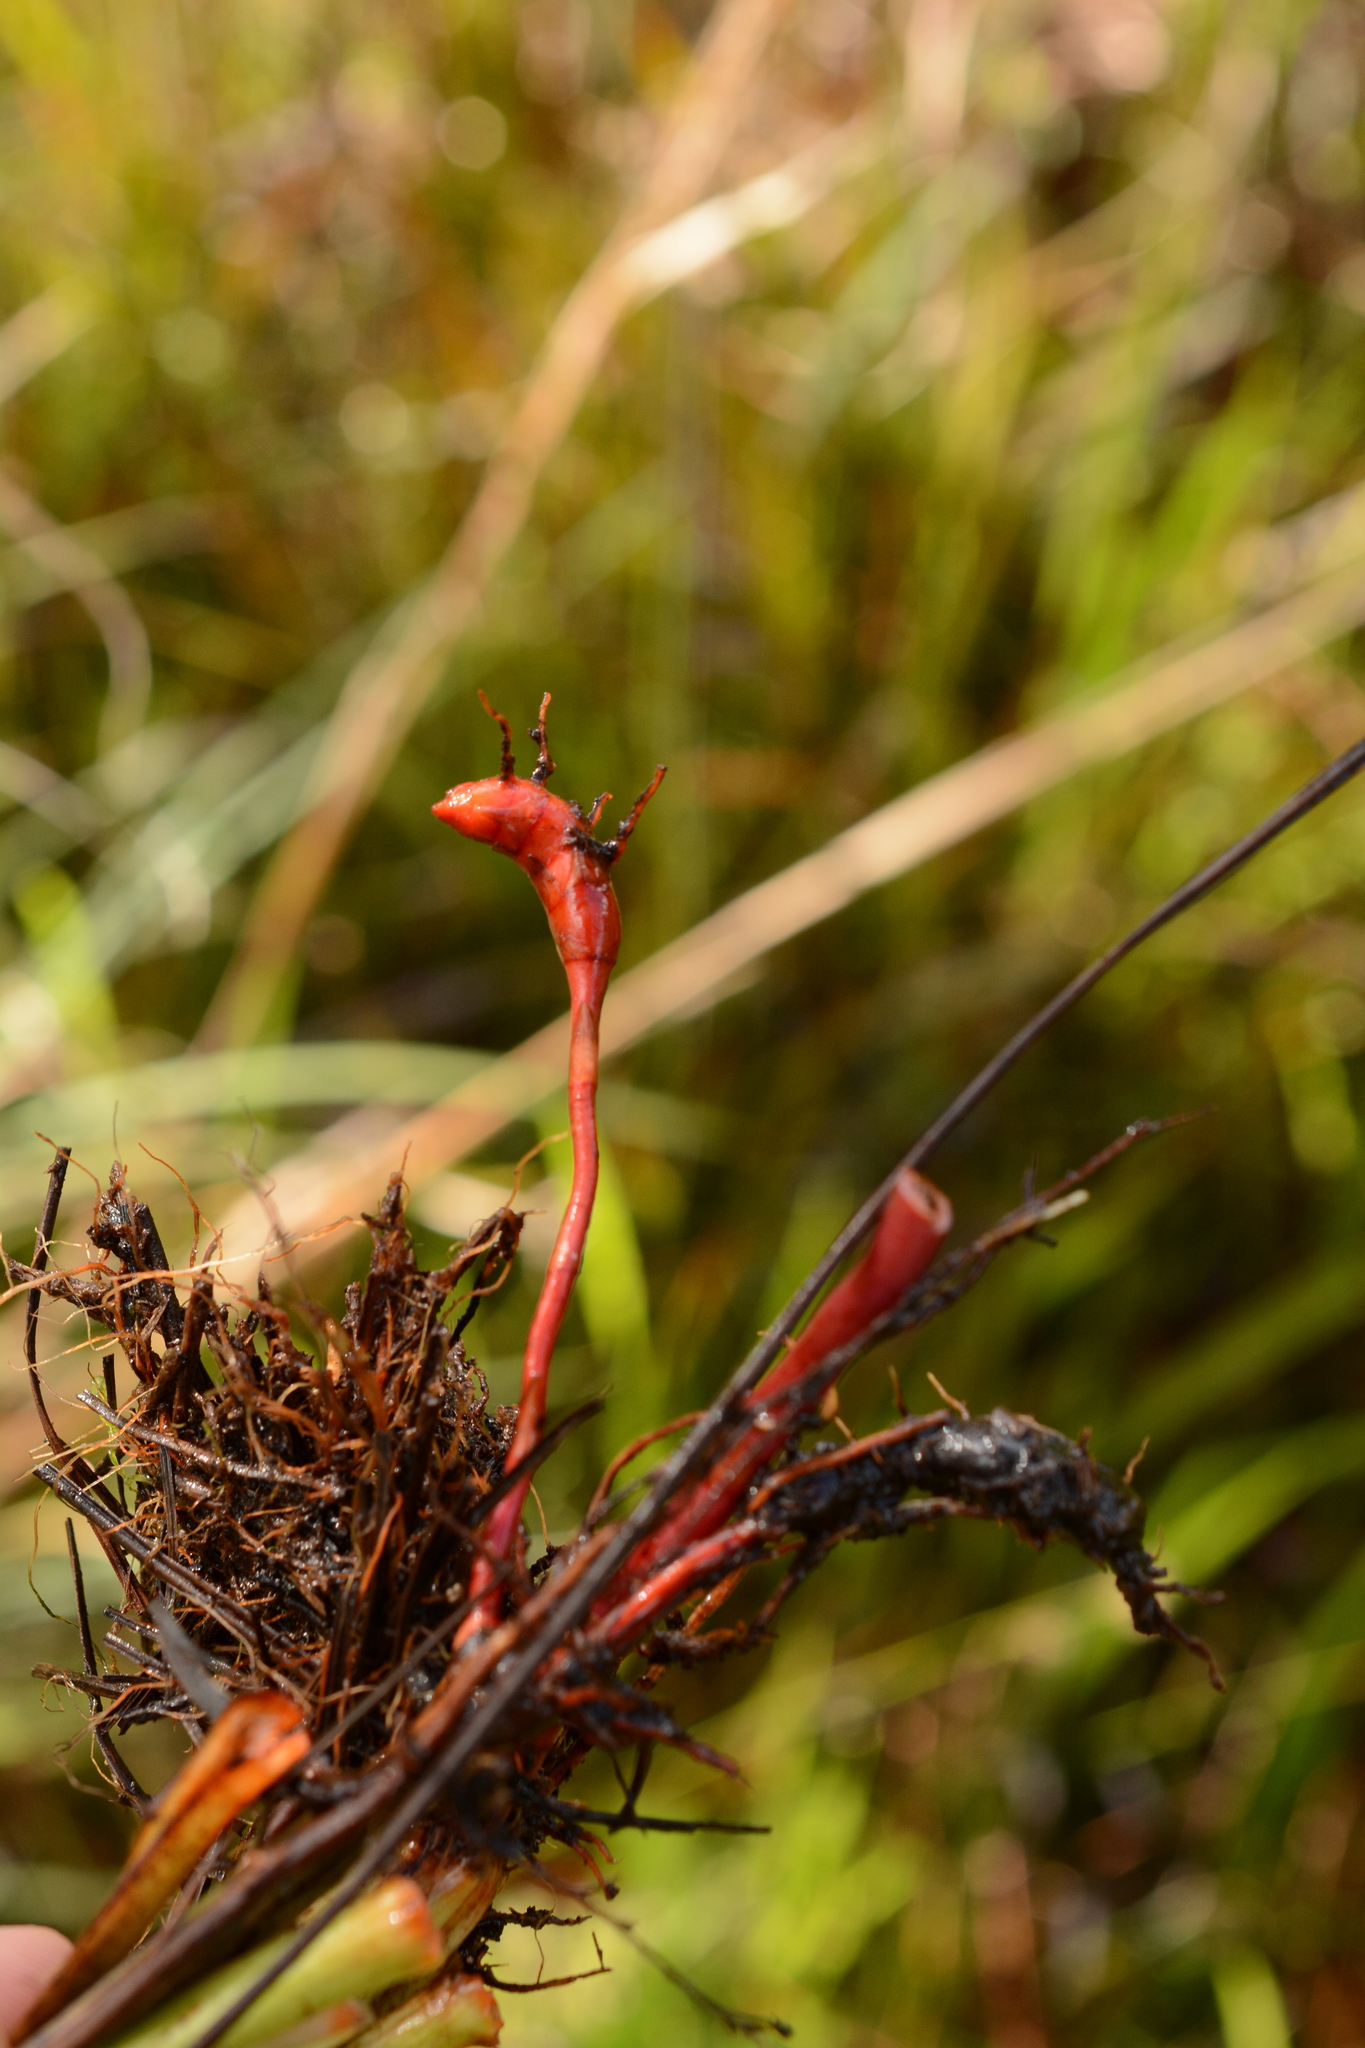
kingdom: Plantae
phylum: Tracheophyta
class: Liliopsida
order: Commelinales
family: Haemodoraceae
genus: Lachnanthes
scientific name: Lachnanthes caroliana
